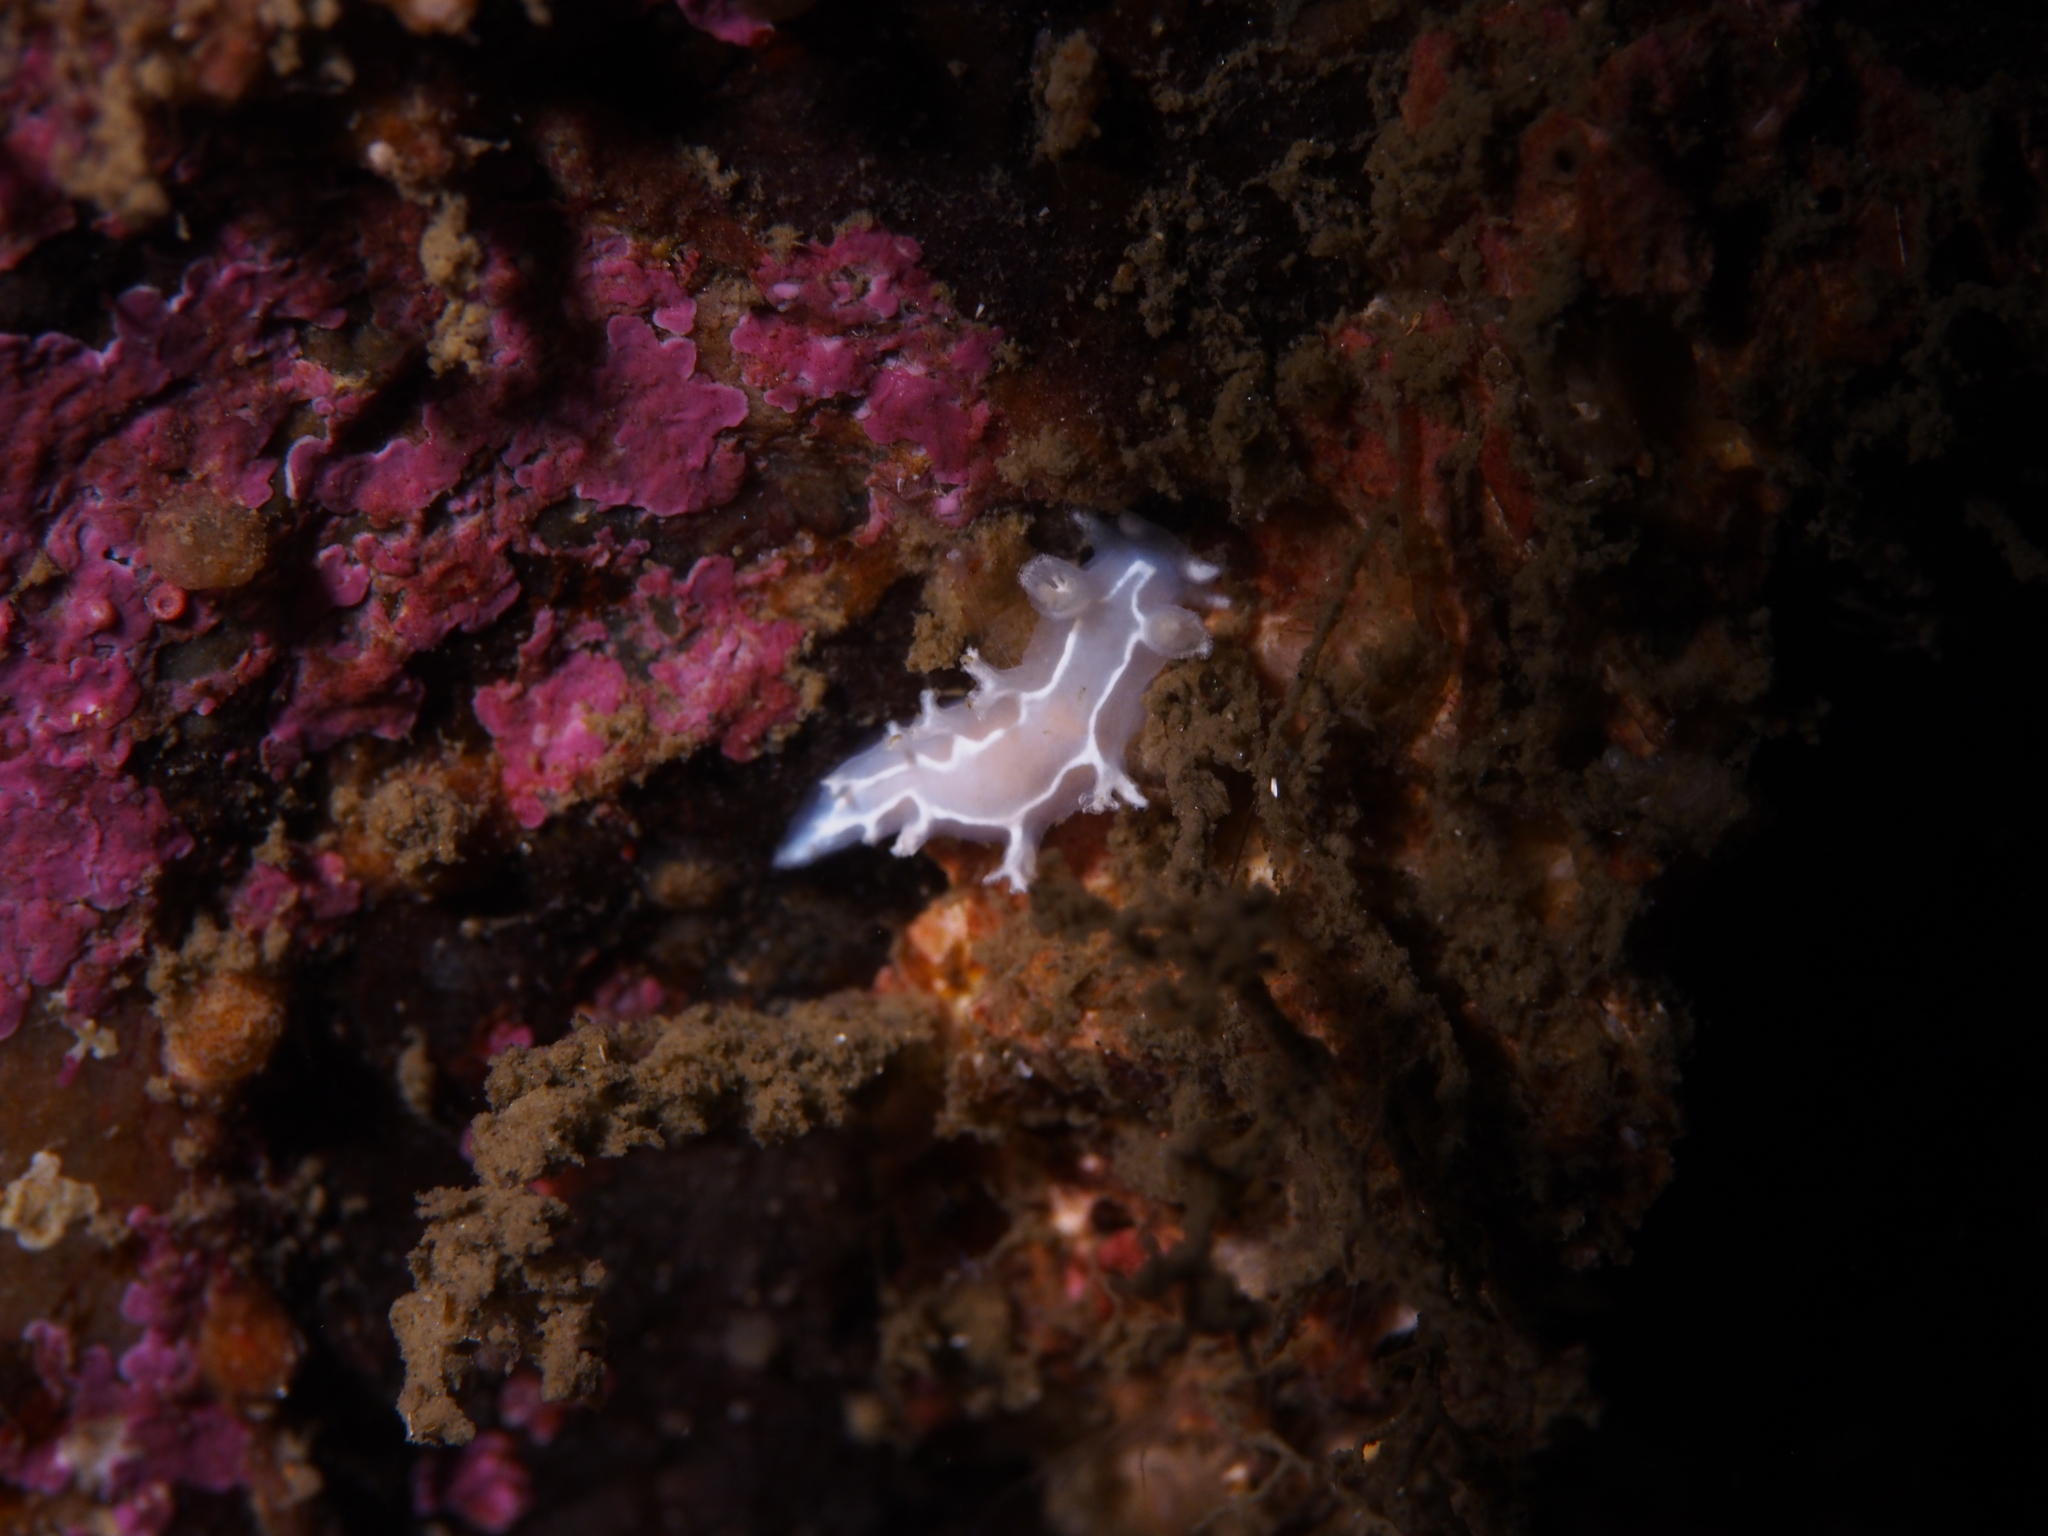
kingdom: Animalia
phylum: Mollusca
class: Gastropoda
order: Nudibranchia
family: Tritoniidae
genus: Duvaucelia
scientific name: Duvaucelia lineata
